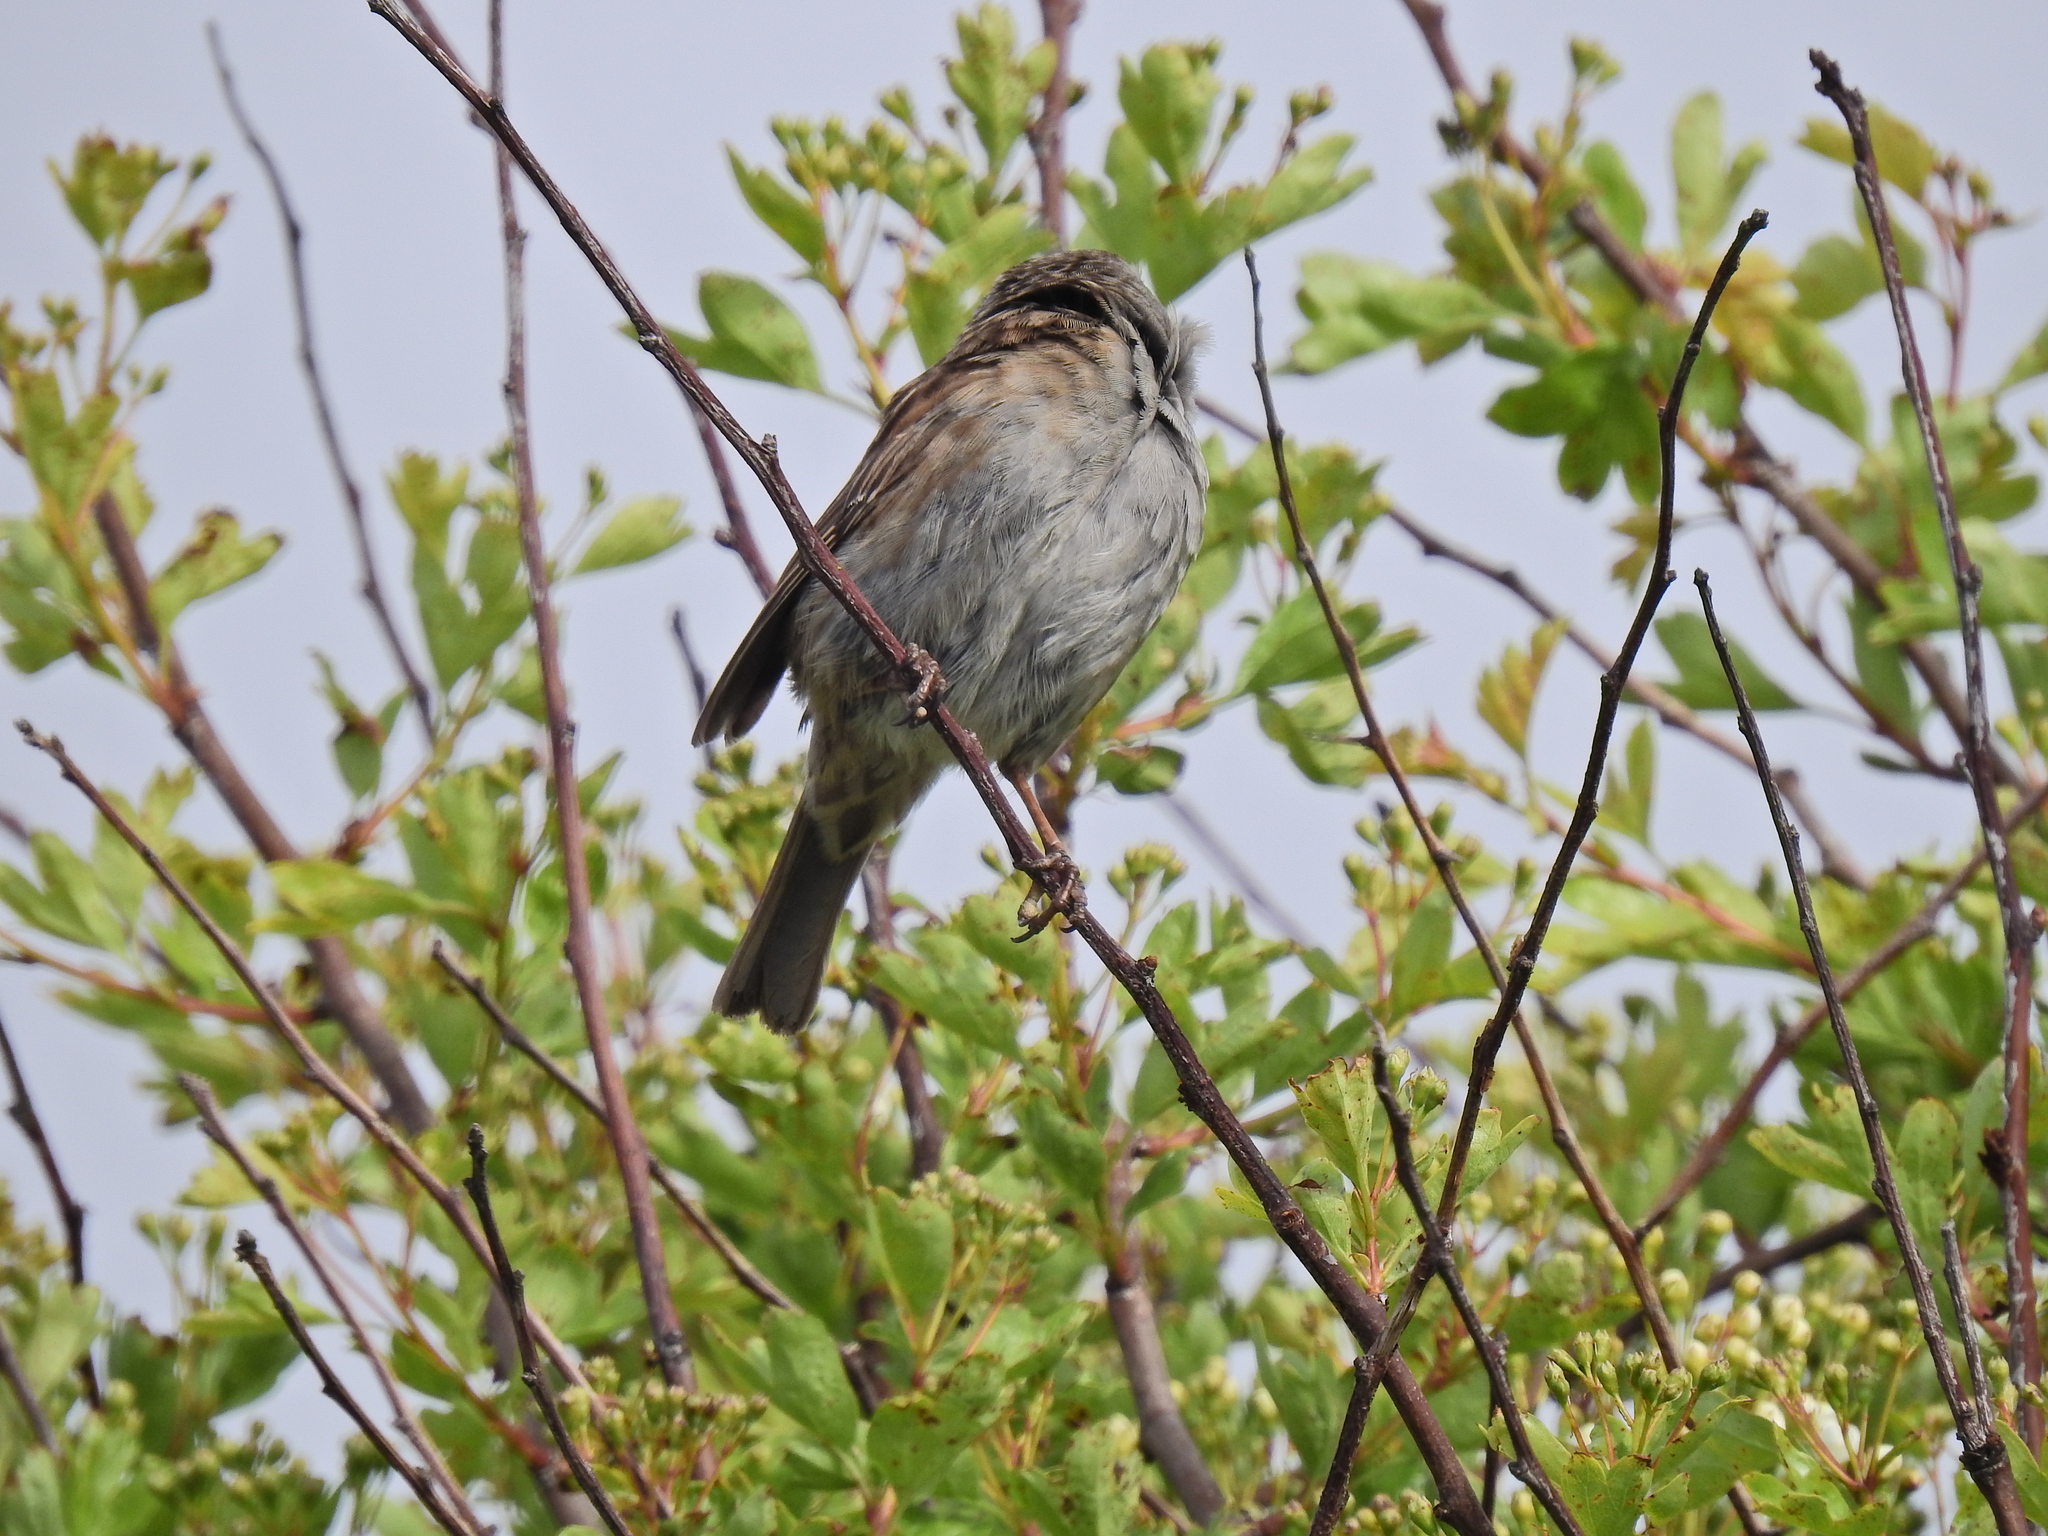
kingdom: Animalia
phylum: Chordata
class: Aves
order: Passeriformes
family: Prunellidae
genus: Prunella
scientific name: Prunella modularis
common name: Dunnock
